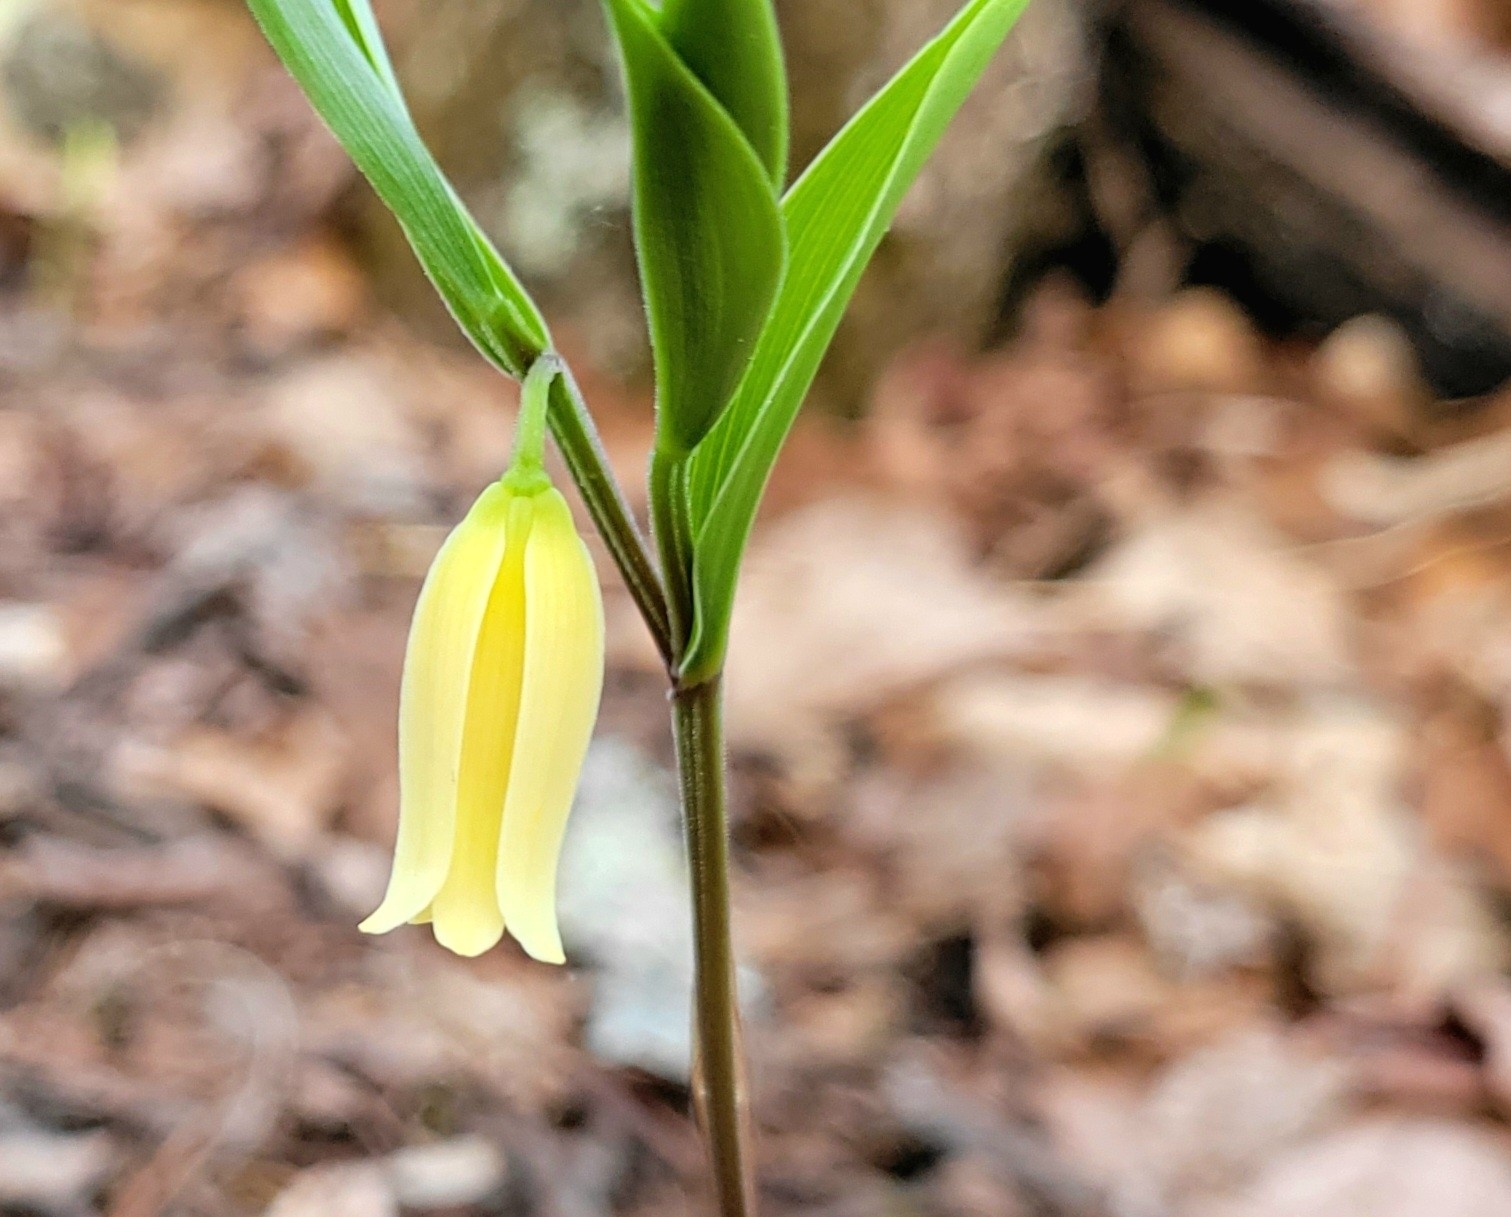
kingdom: Plantae
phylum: Tracheophyta
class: Liliopsida
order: Liliales
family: Colchicaceae
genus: Uvularia
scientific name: Uvularia puberula
